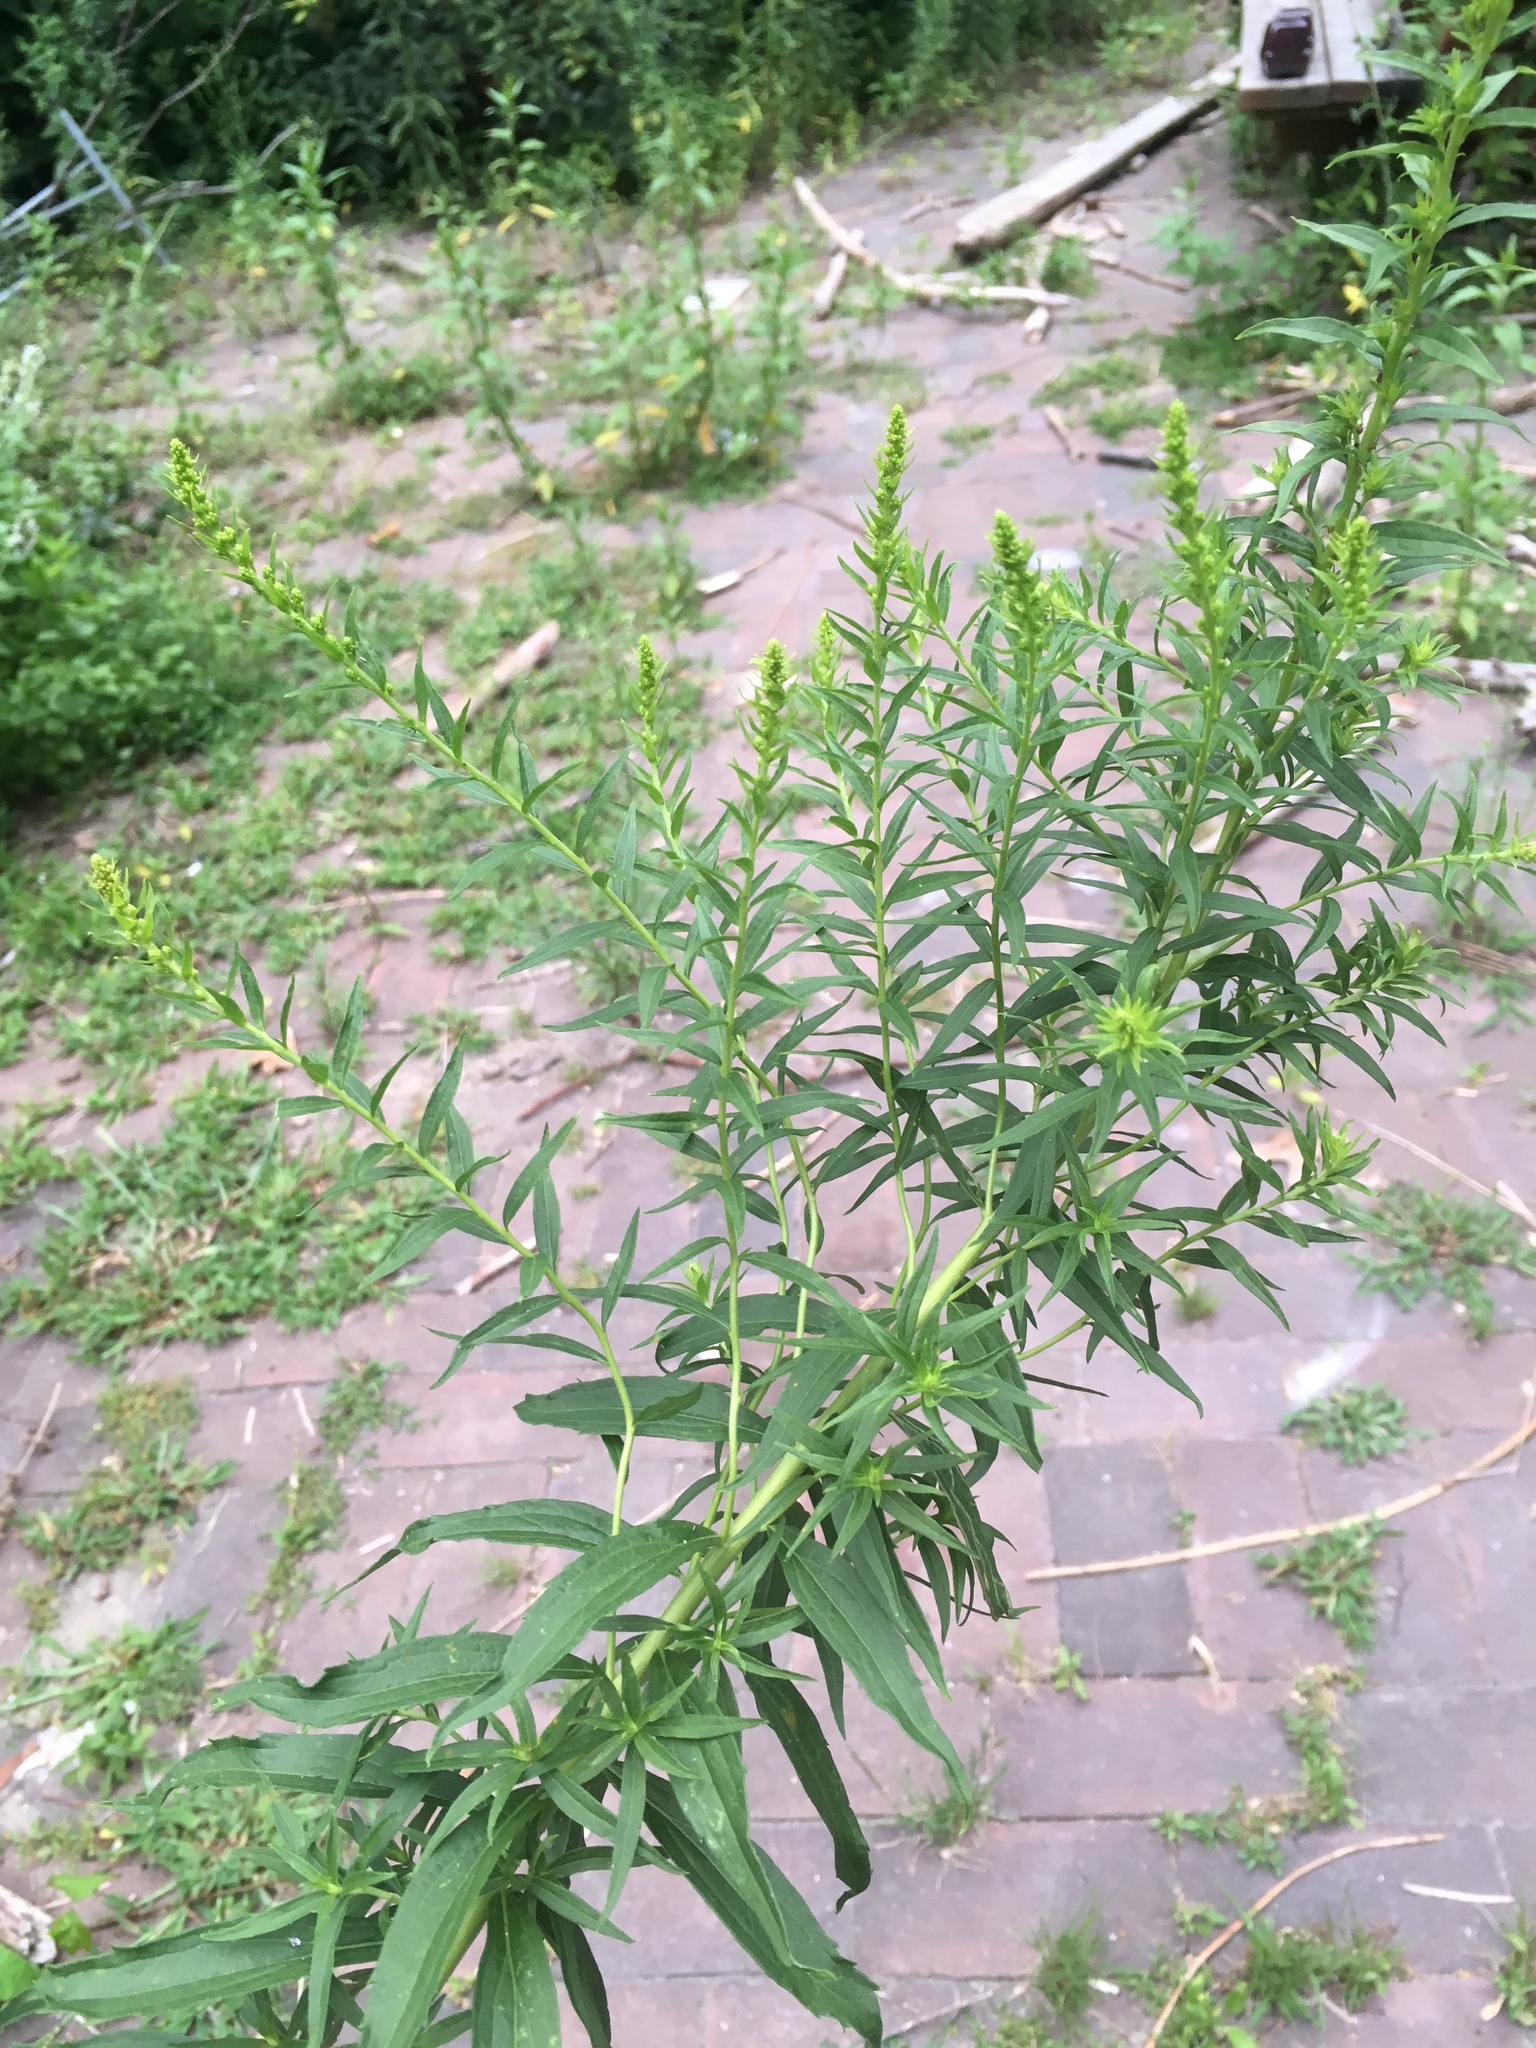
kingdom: Plantae
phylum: Tracheophyta
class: Magnoliopsida
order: Asterales
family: Asteraceae
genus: Solidago
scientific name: Solidago canadensis
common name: Canada goldenrod
